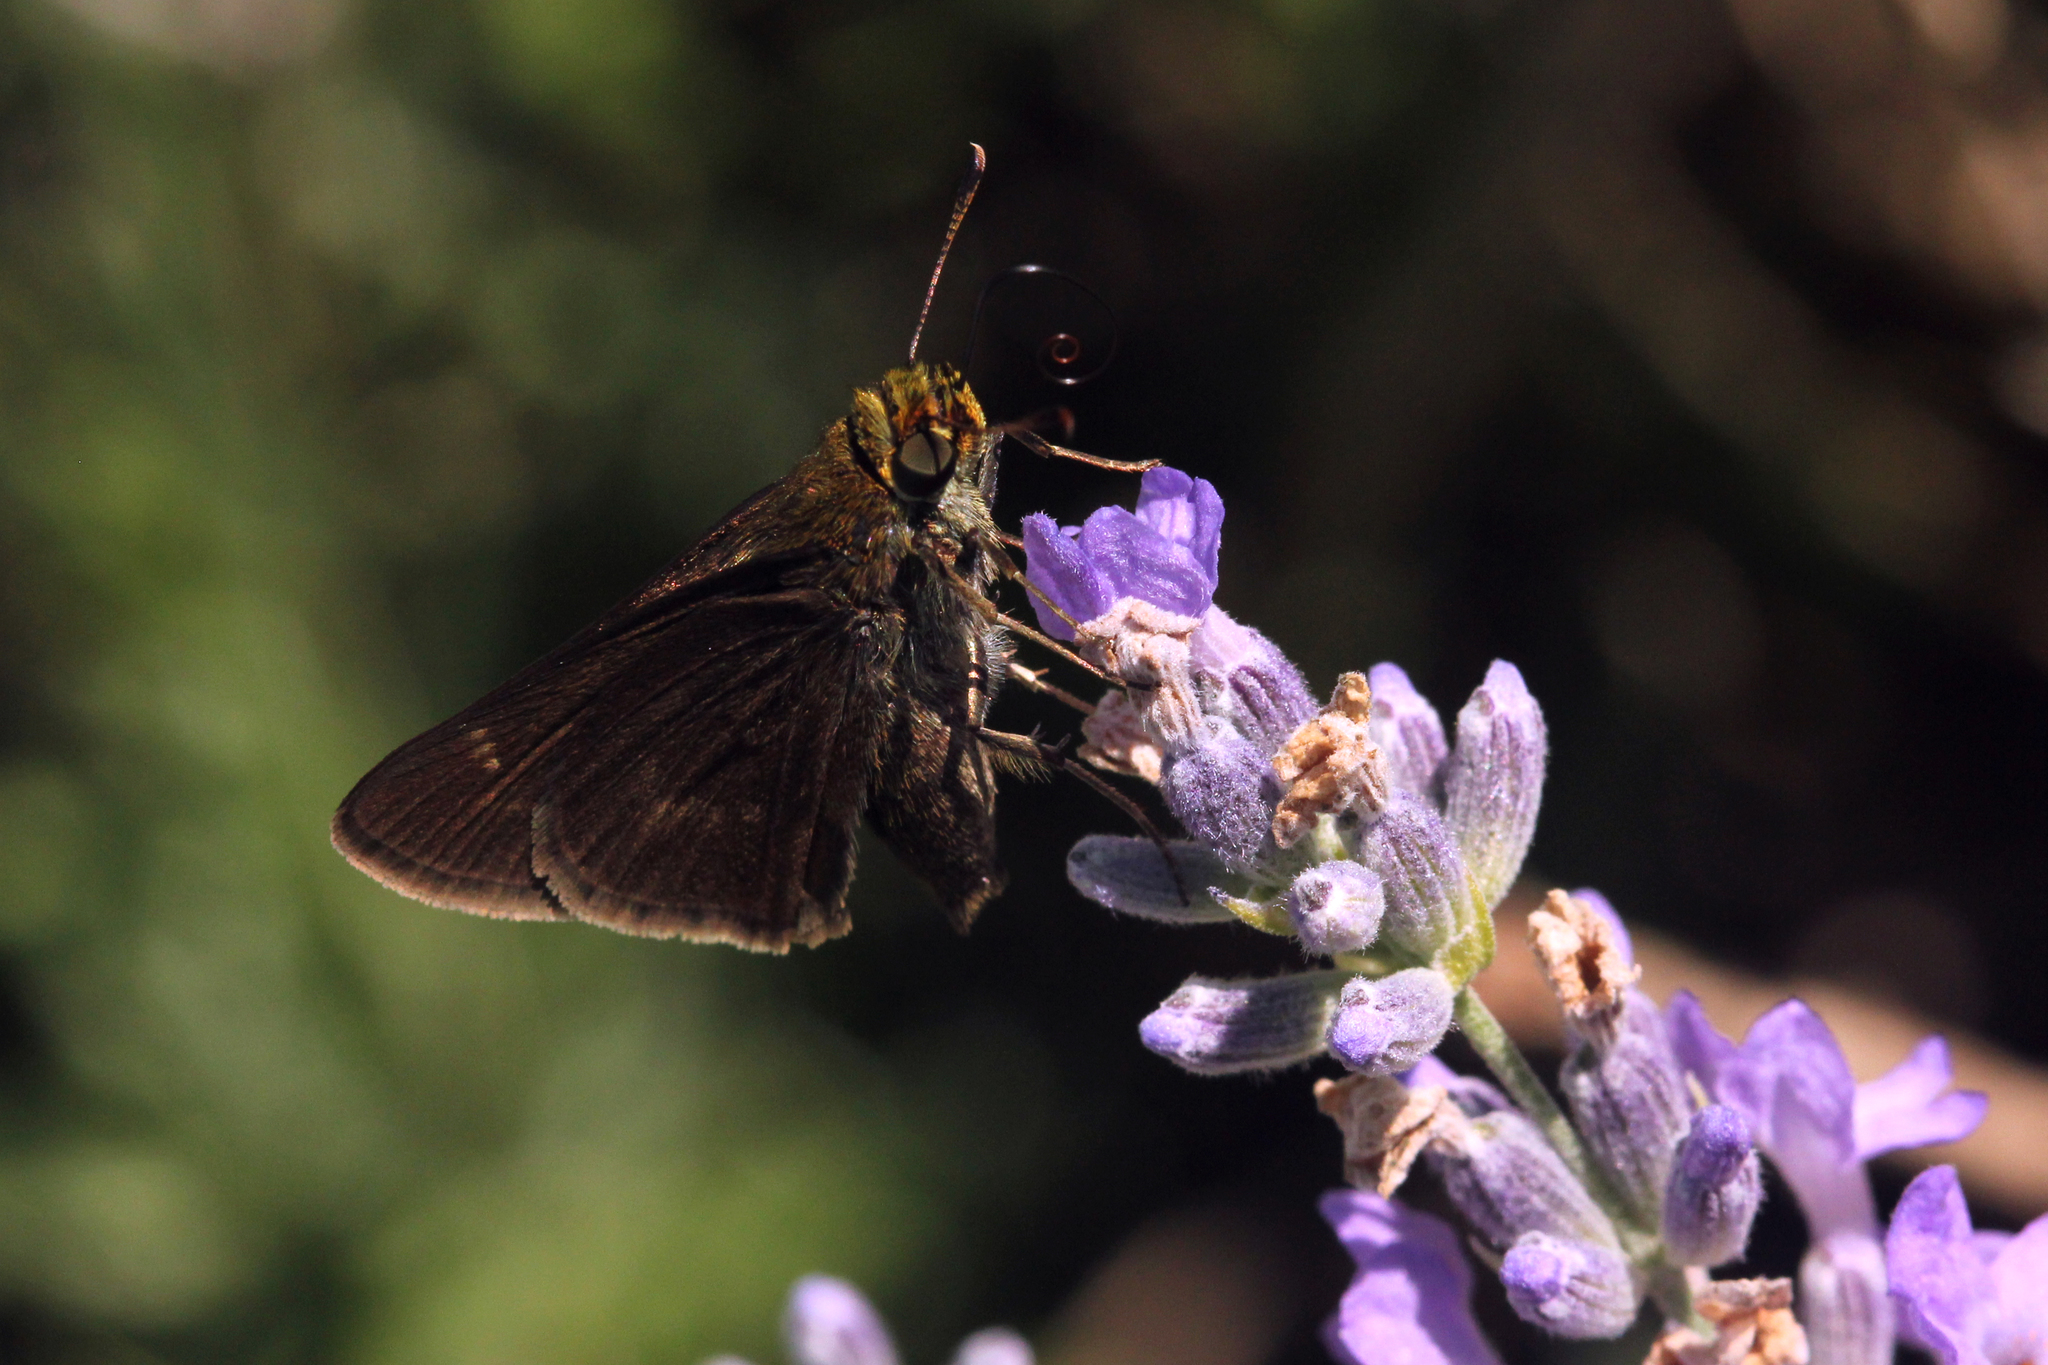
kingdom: Animalia
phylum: Arthropoda
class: Insecta
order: Lepidoptera
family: Hesperiidae
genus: Euphyes
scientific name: Euphyes vestris
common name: Dun skipper
